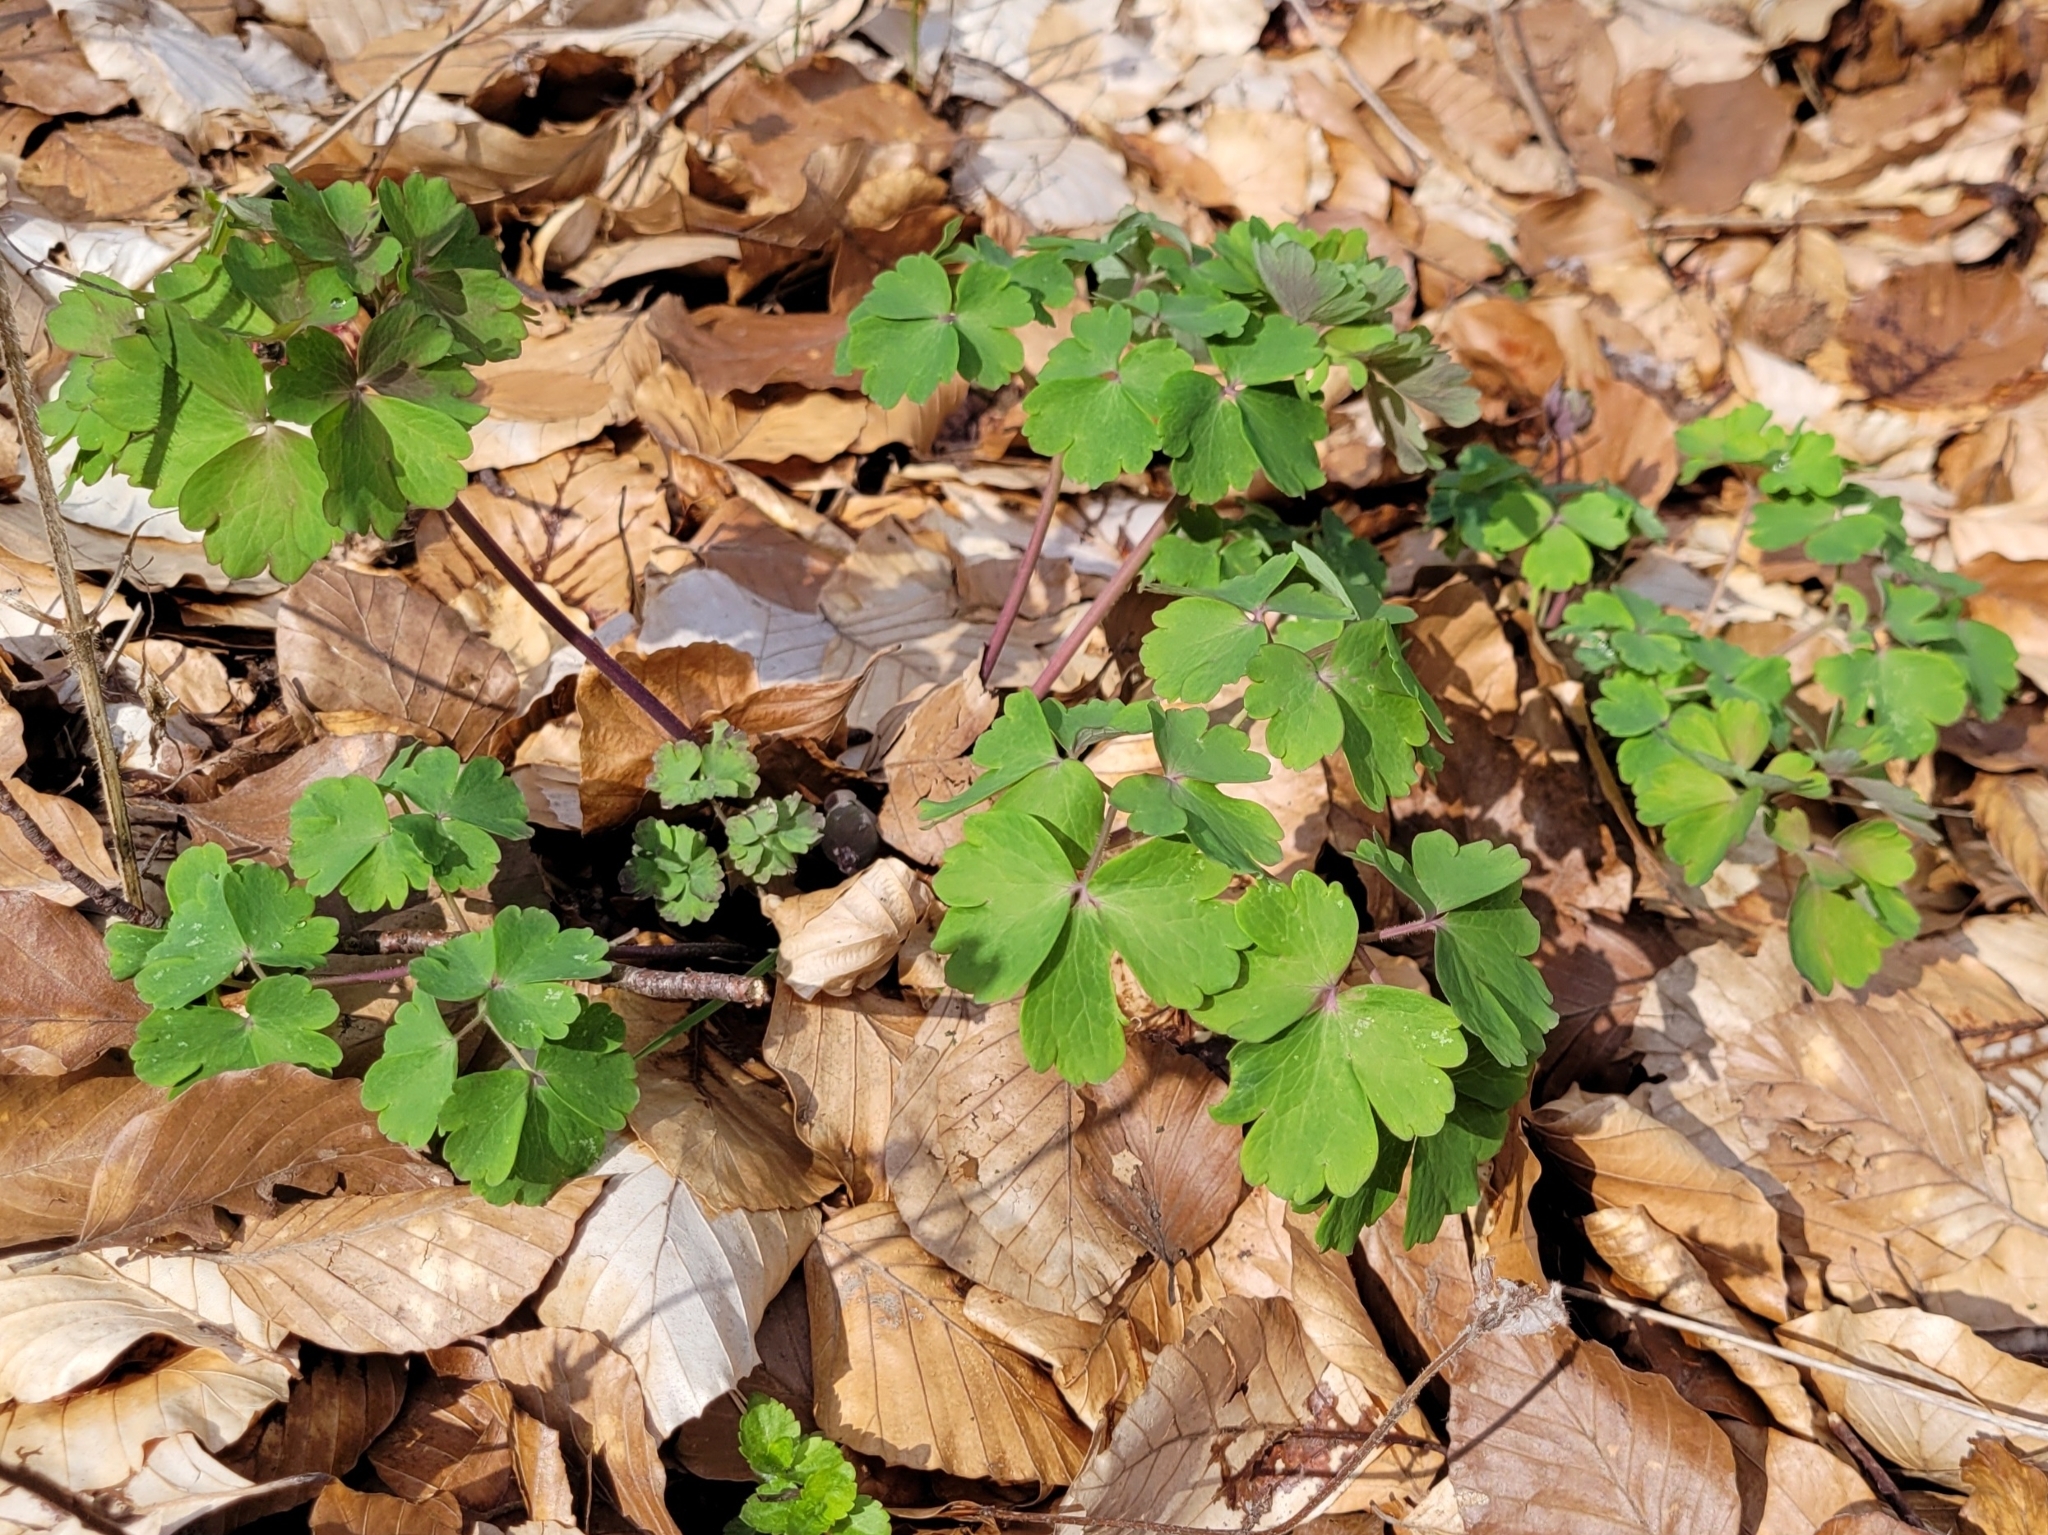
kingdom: Plantae
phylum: Tracheophyta
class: Magnoliopsida
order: Ranunculales
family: Ranunculaceae
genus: Aquilegia
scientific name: Aquilegia vulgaris
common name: Columbine
